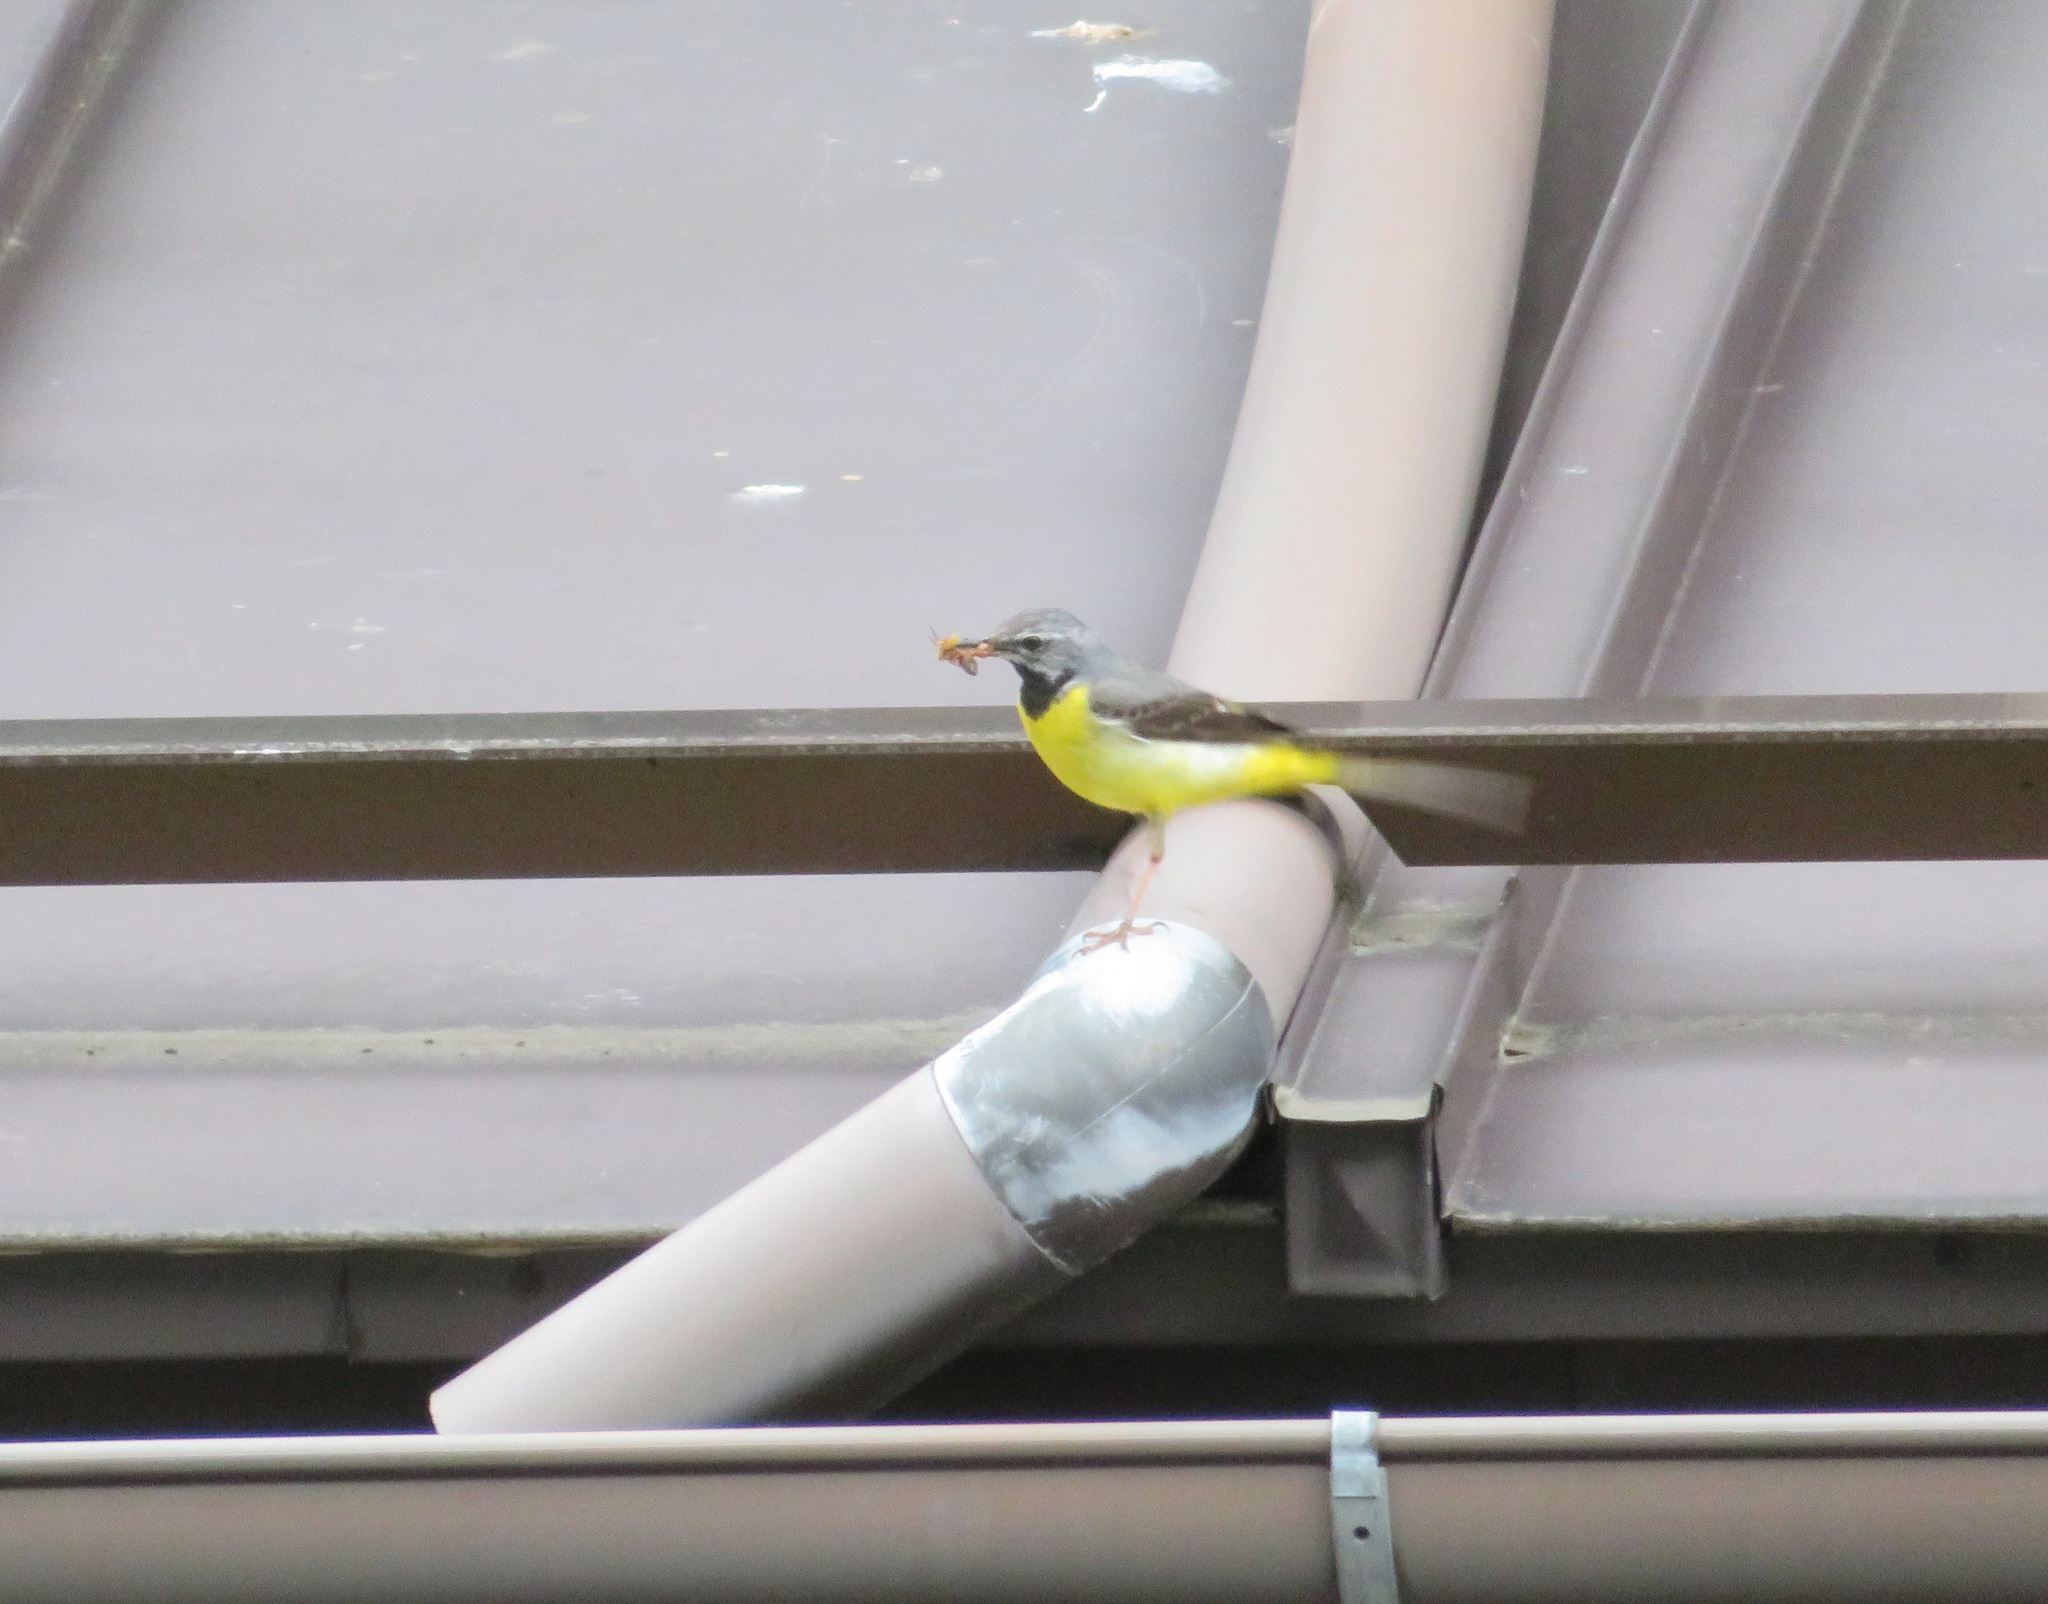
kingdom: Animalia
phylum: Chordata
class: Aves
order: Passeriformes
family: Motacillidae
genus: Motacilla
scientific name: Motacilla cinerea
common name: Grey wagtail
